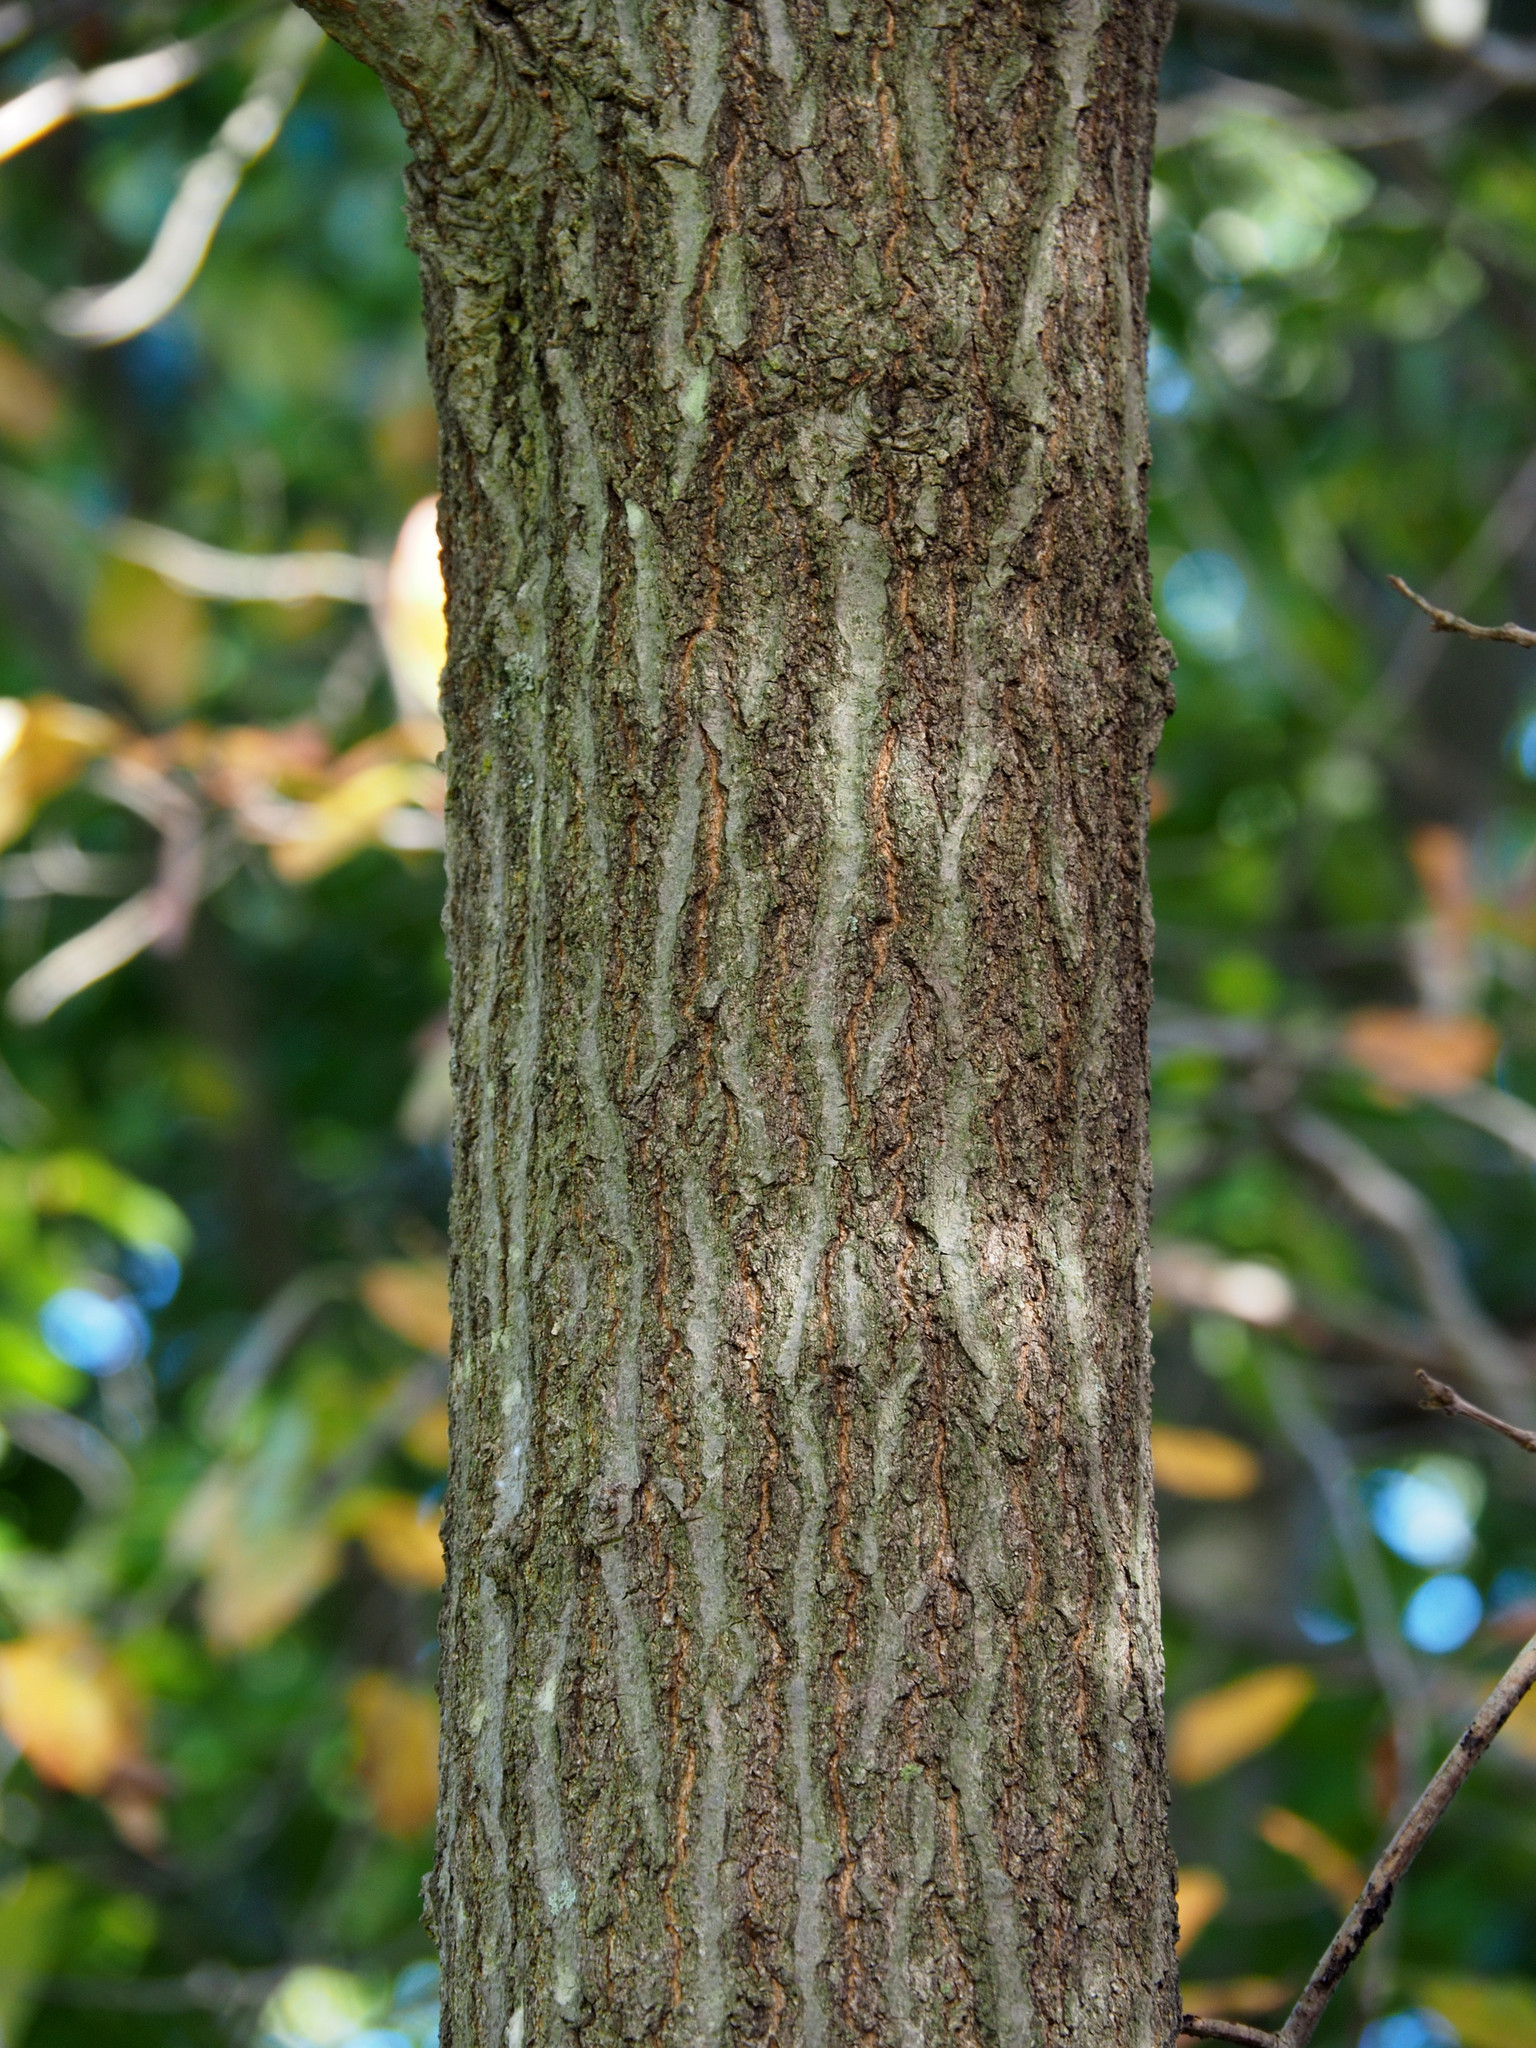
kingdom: Plantae
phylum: Tracheophyta
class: Magnoliopsida
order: Fagales
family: Fagaceae
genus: Quercus
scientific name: Quercus rubra
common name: Red oak
